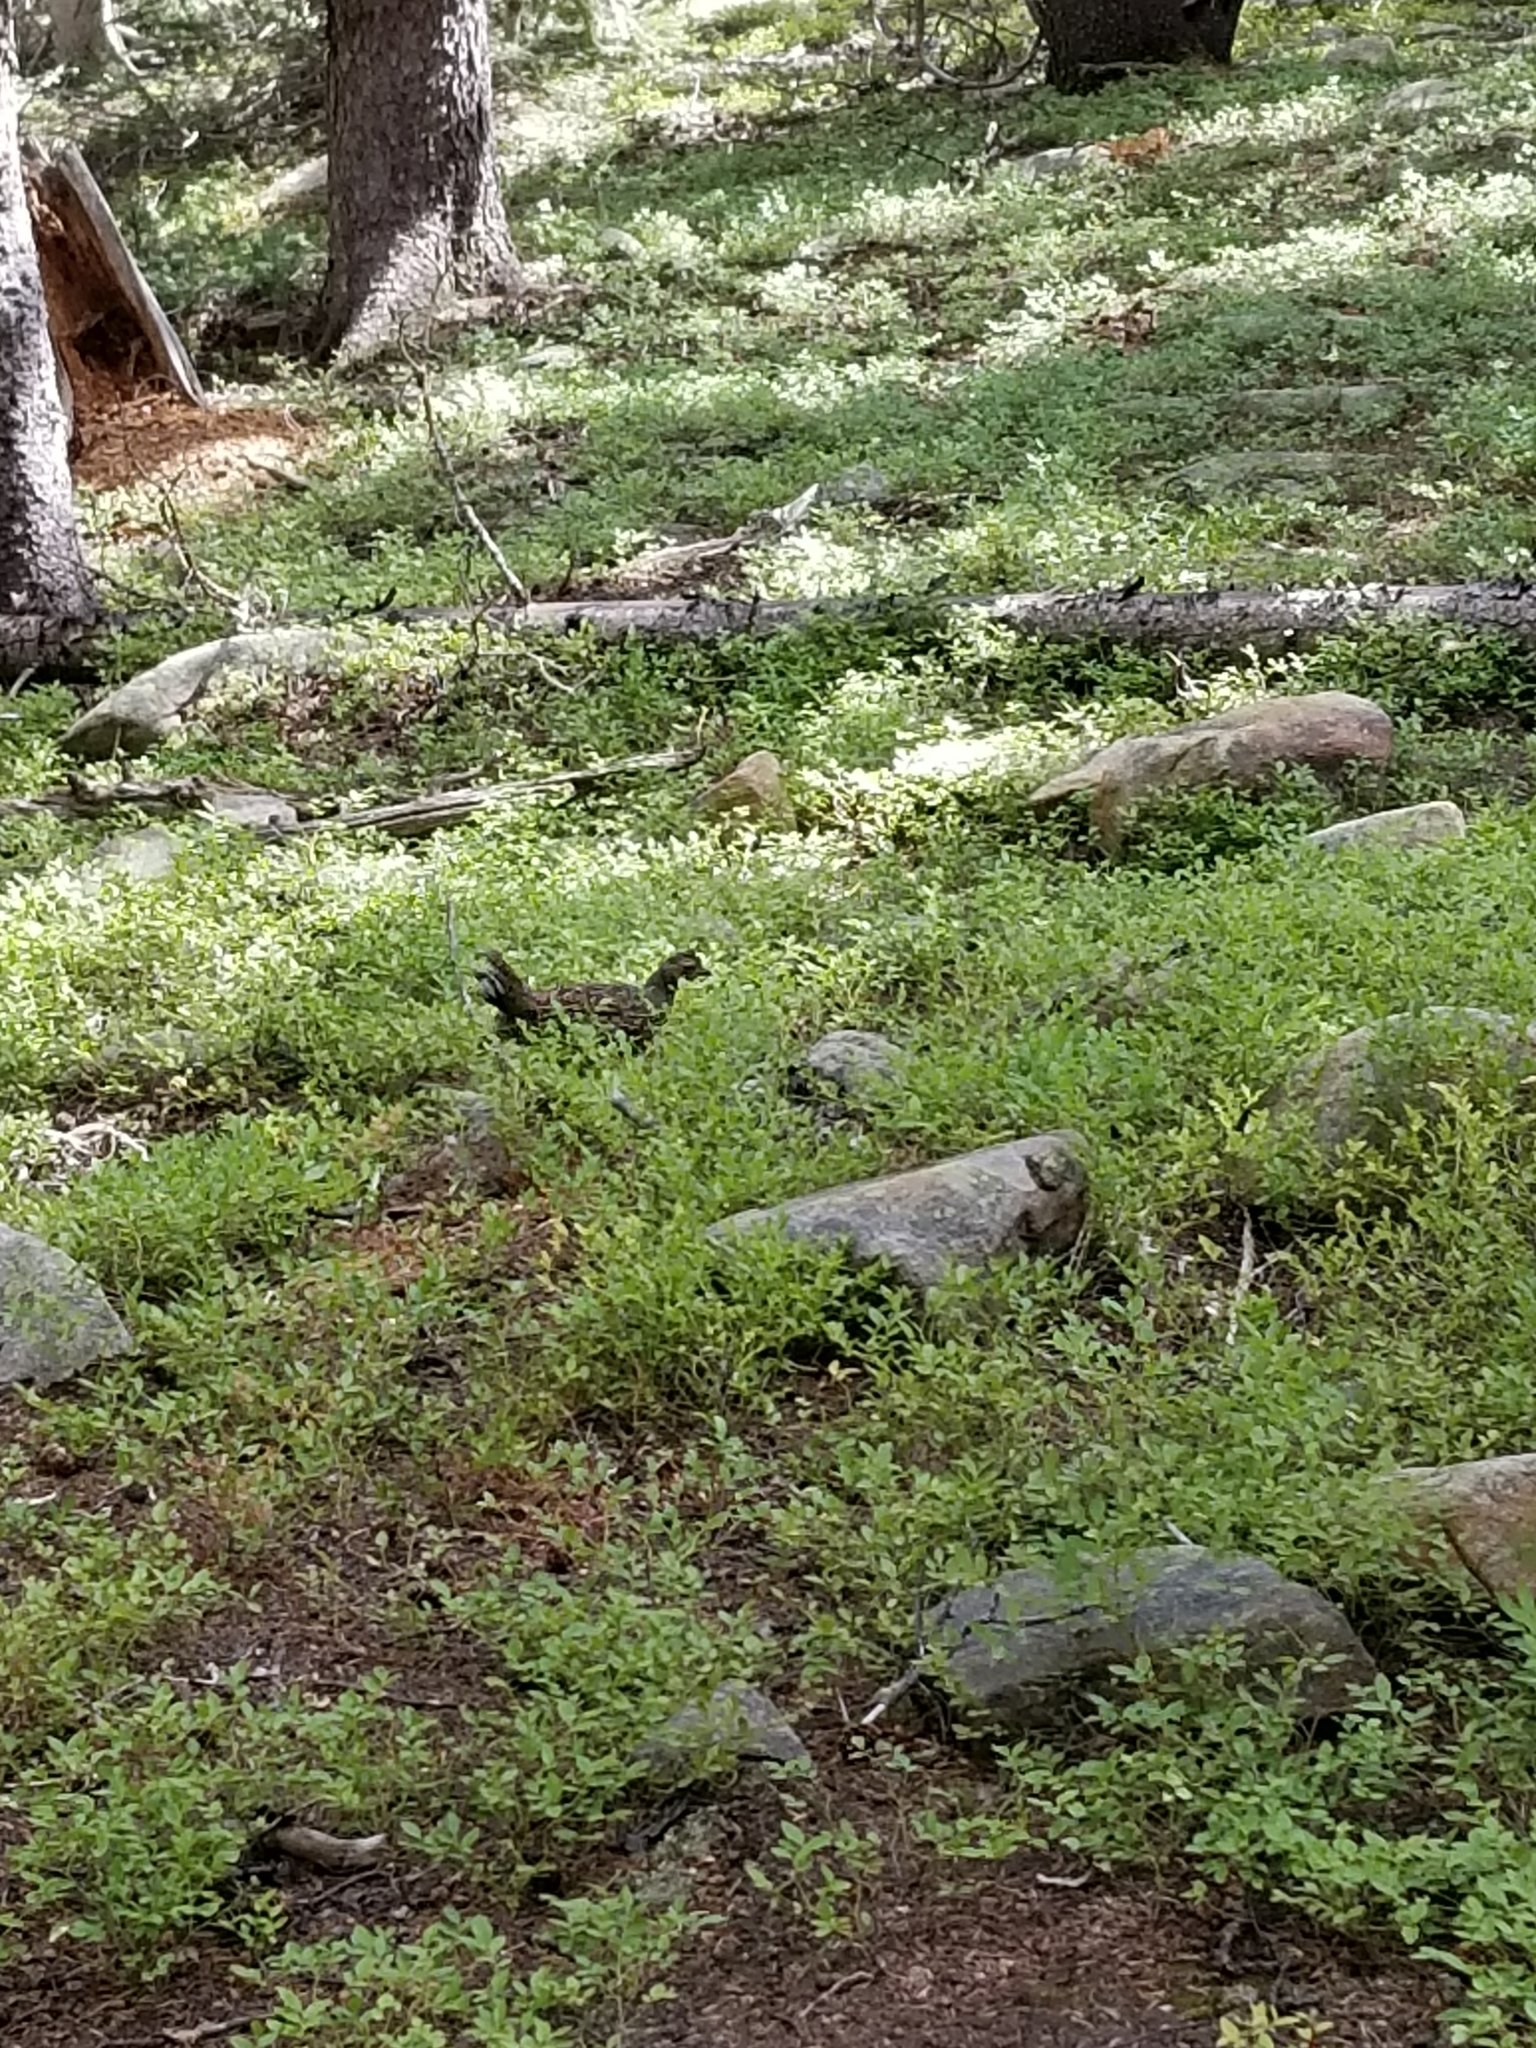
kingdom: Animalia
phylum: Chordata
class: Aves
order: Galliformes
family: Phasianidae
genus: Dendragapus
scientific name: Dendragapus obscurus
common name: Dusky grouse
